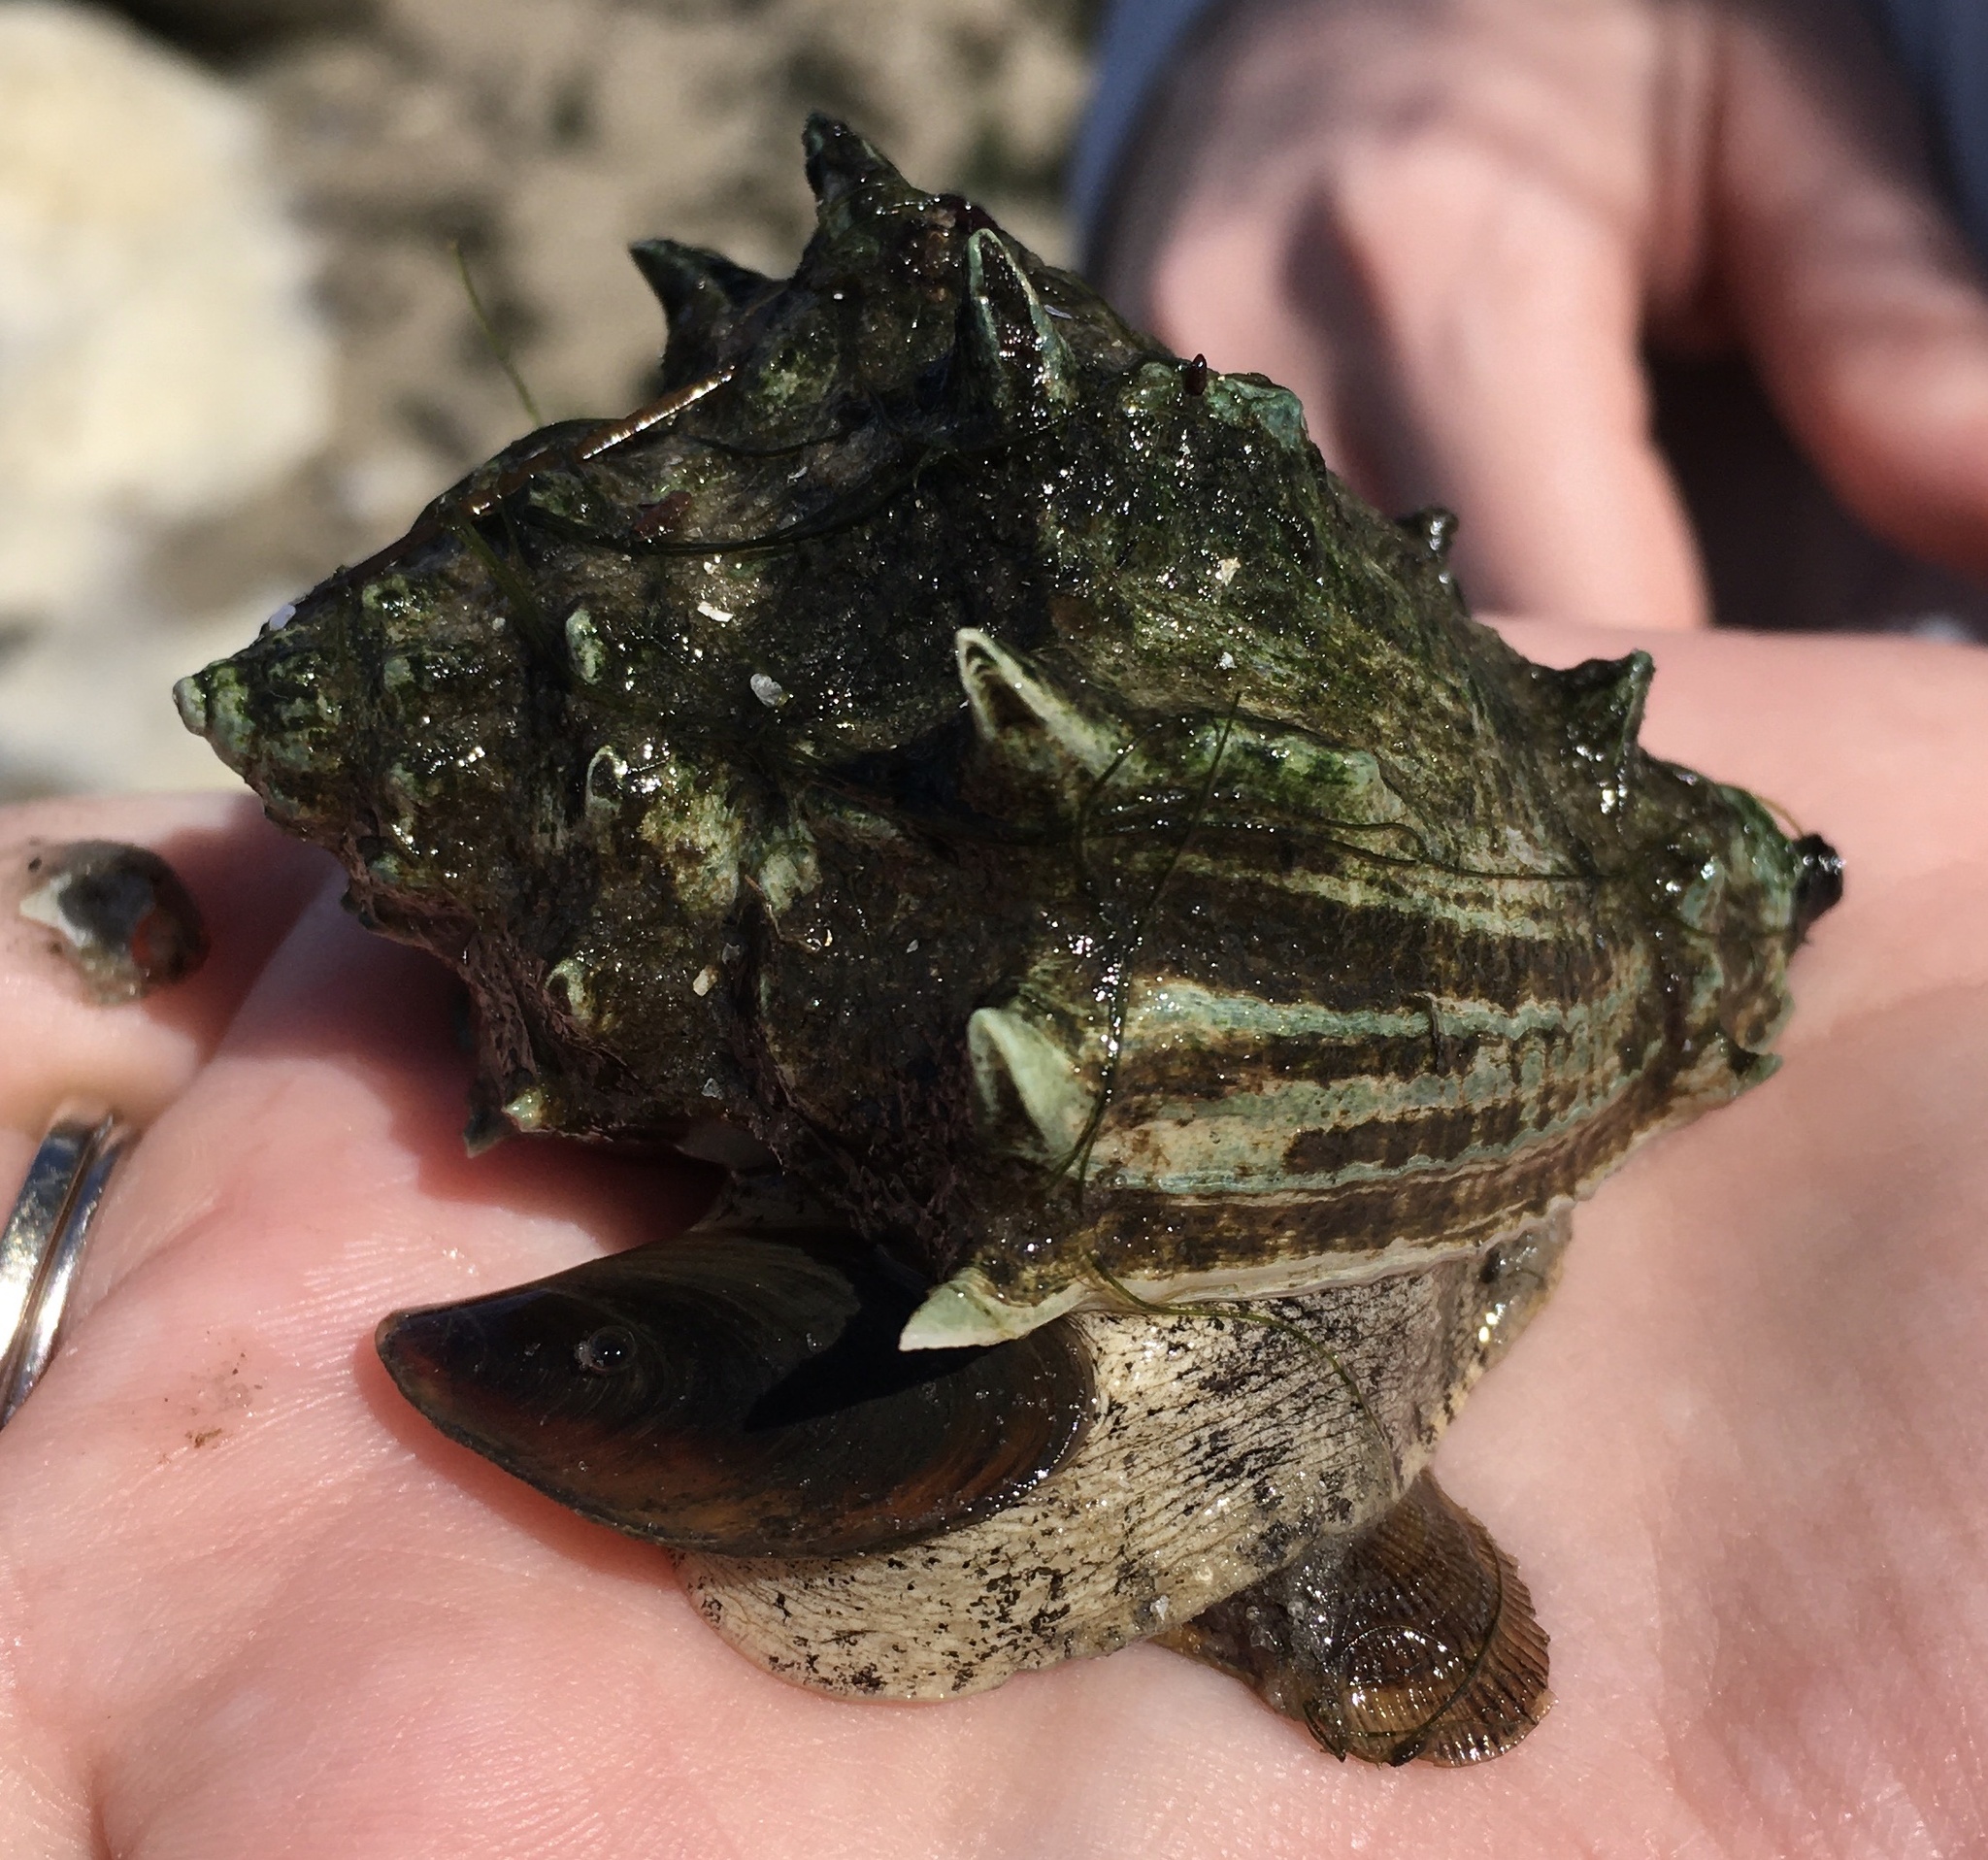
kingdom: Animalia
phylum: Mollusca
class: Gastropoda
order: Neogastropoda
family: Melongenidae
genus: Melongena
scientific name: Melongena corona
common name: American crown conch
